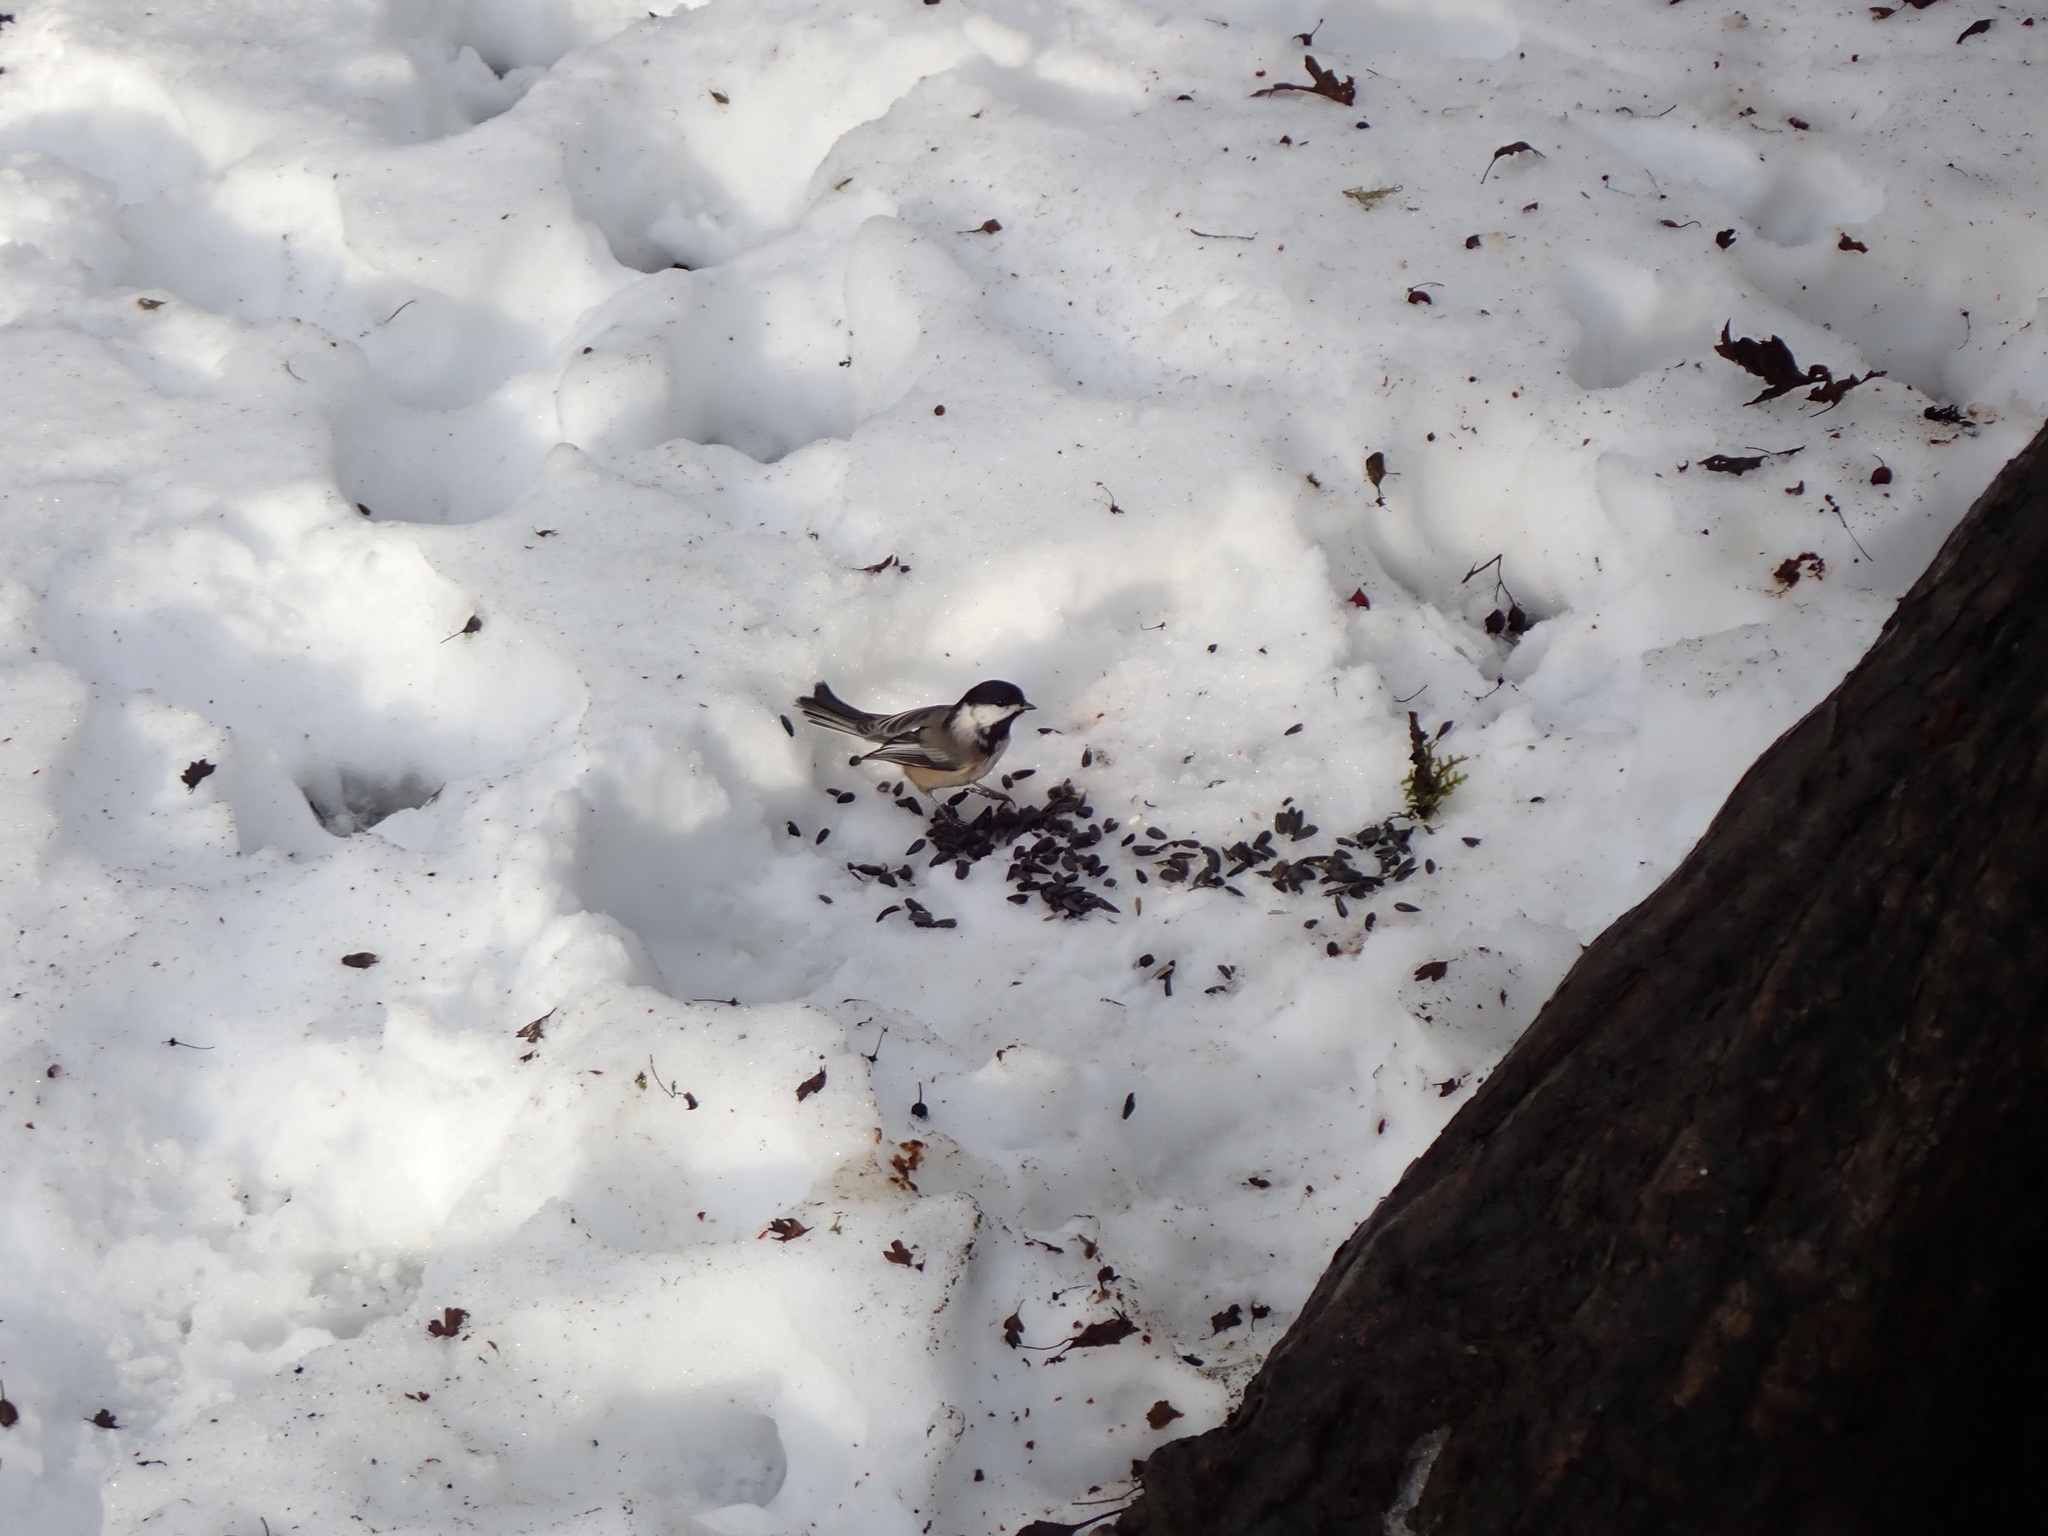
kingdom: Animalia
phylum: Chordata
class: Aves
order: Passeriformes
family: Paridae
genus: Poecile
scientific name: Poecile atricapillus
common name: Black-capped chickadee
